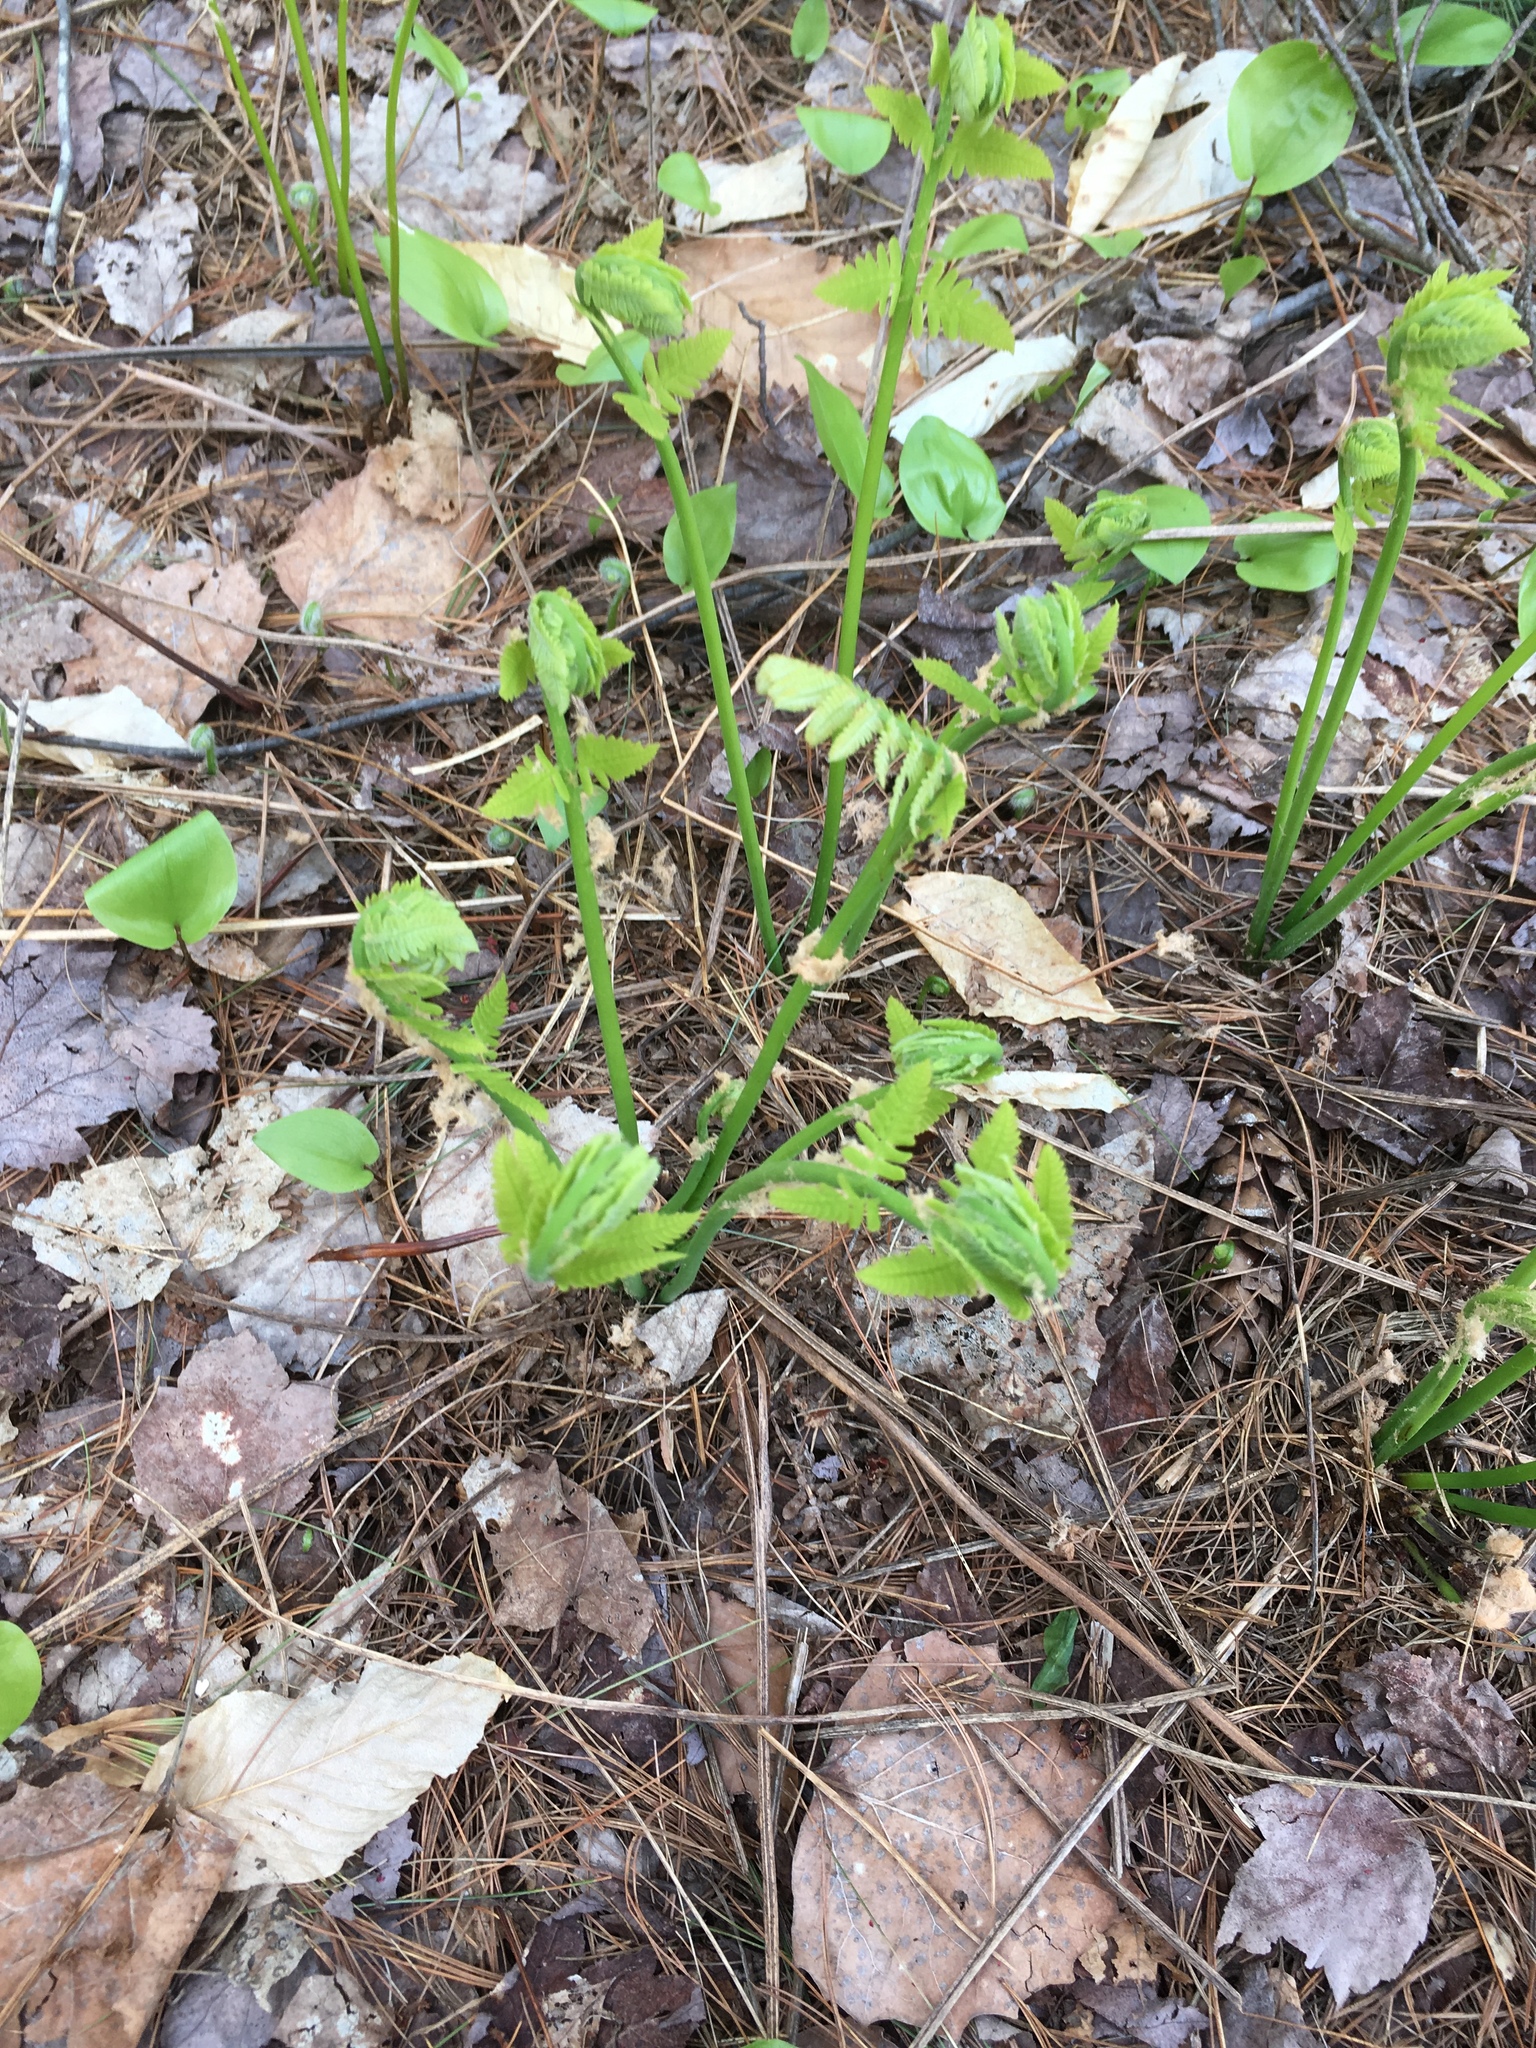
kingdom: Plantae
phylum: Tracheophyta
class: Polypodiopsida
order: Osmundales
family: Osmundaceae
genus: Claytosmunda
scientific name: Claytosmunda claytoniana
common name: Clayton's fern
